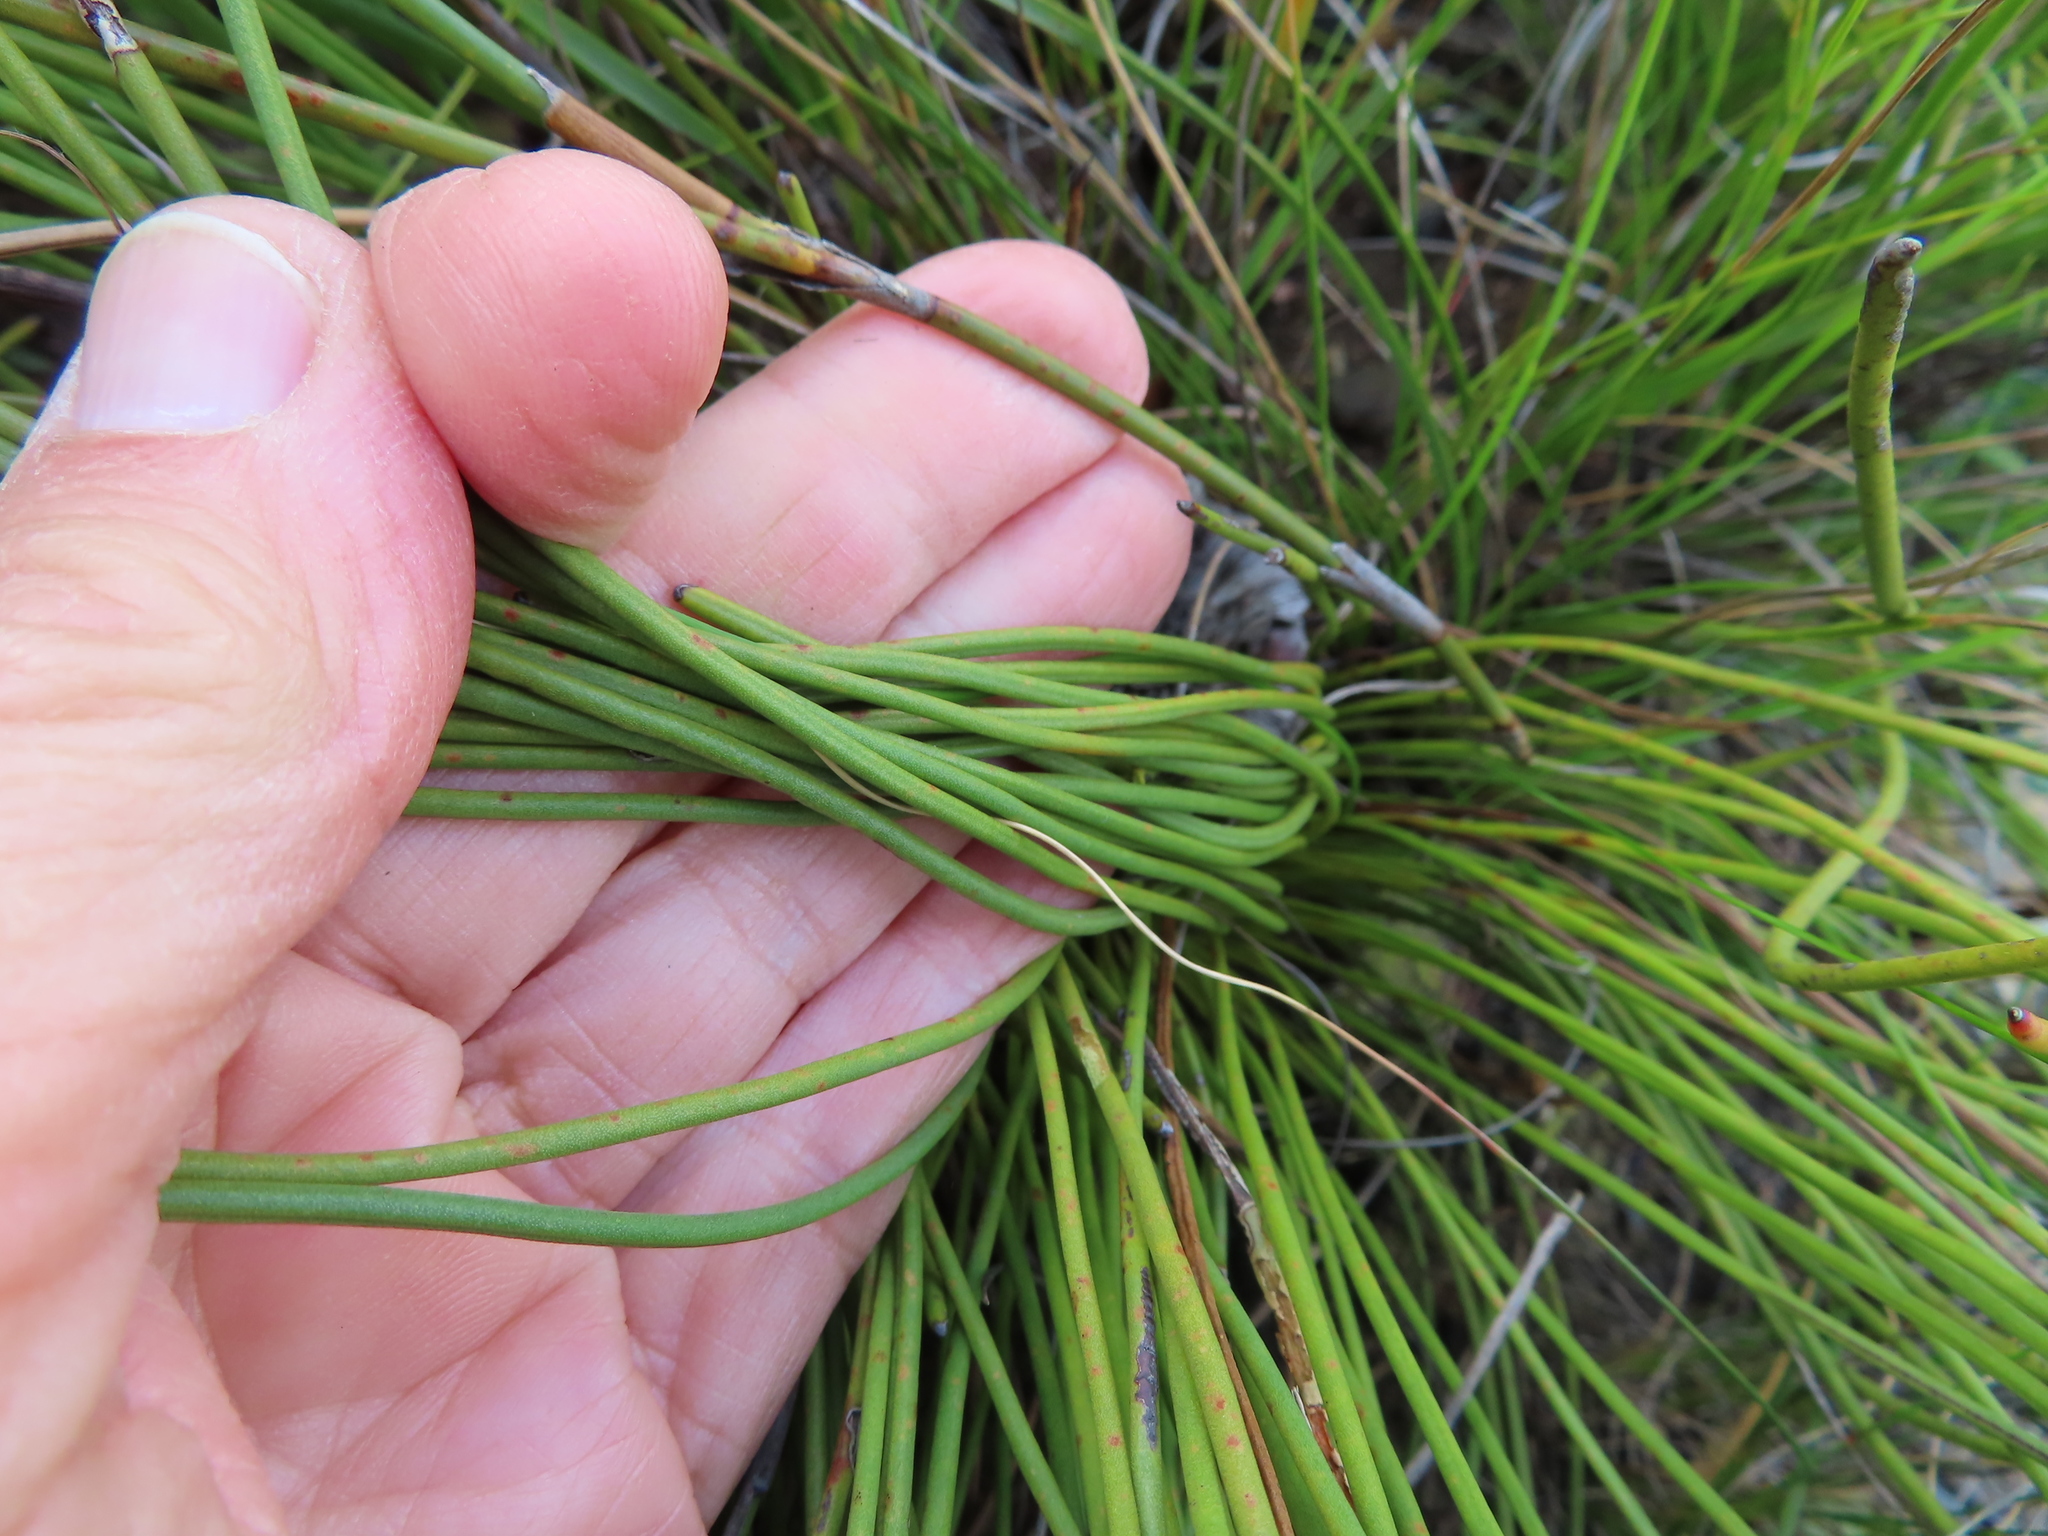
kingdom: Plantae
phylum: Tracheophyta
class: Magnoliopsida
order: Proteales
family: Proteaceae
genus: Protea
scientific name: Protea lorea
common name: Thong-leaf sugarbush
